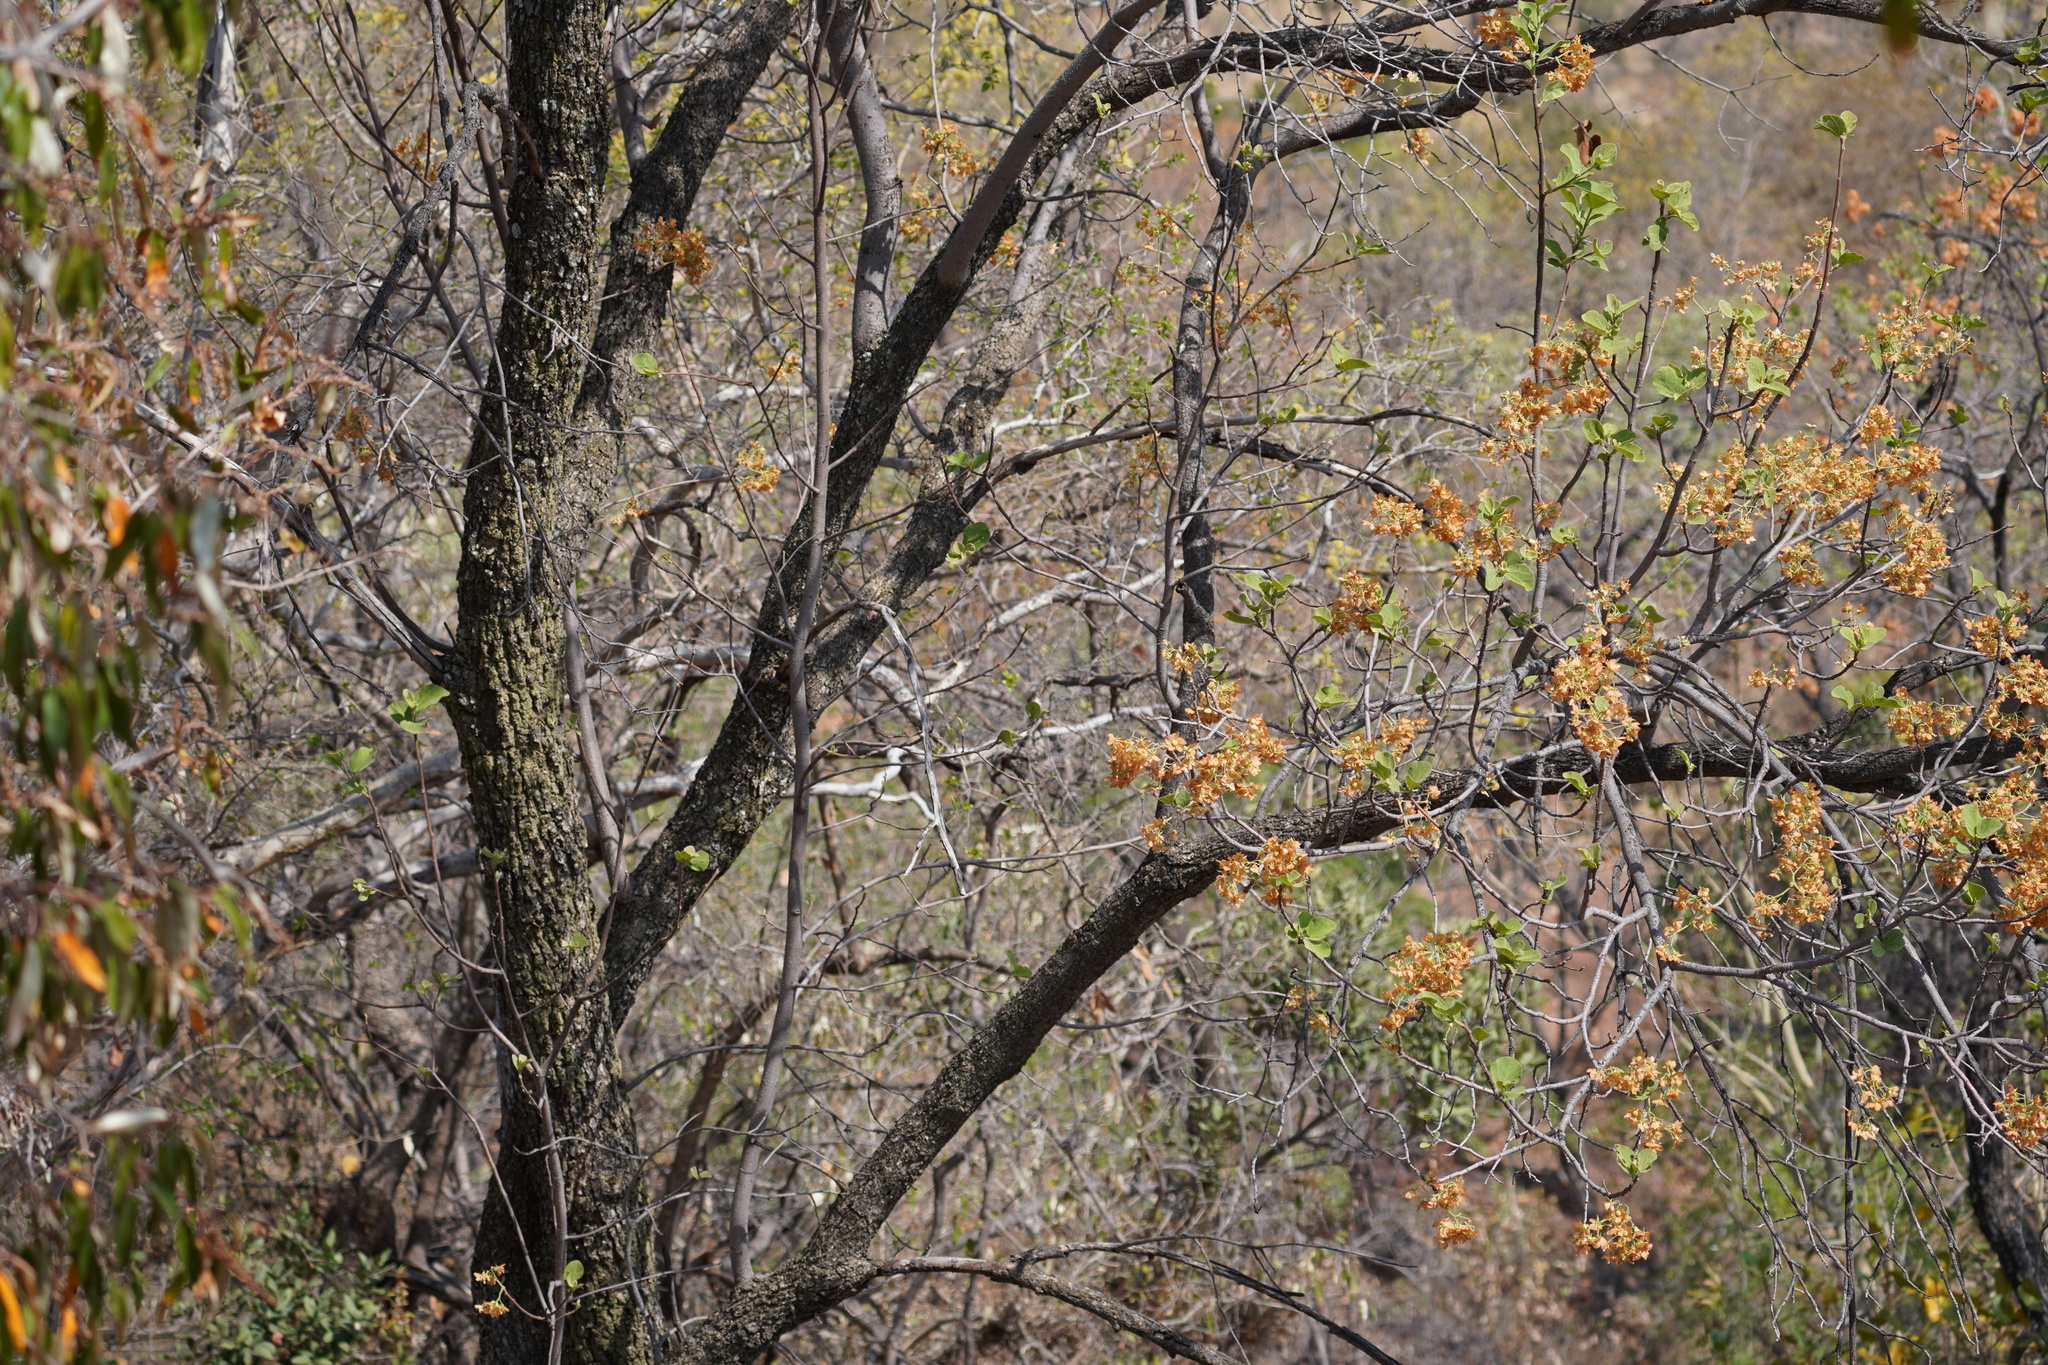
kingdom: Plantae
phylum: Tracheophyta
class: Magnoliopsida
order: Malvales
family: Malvaceae
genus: Dombeya
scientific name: Dombeya rotundifolia
